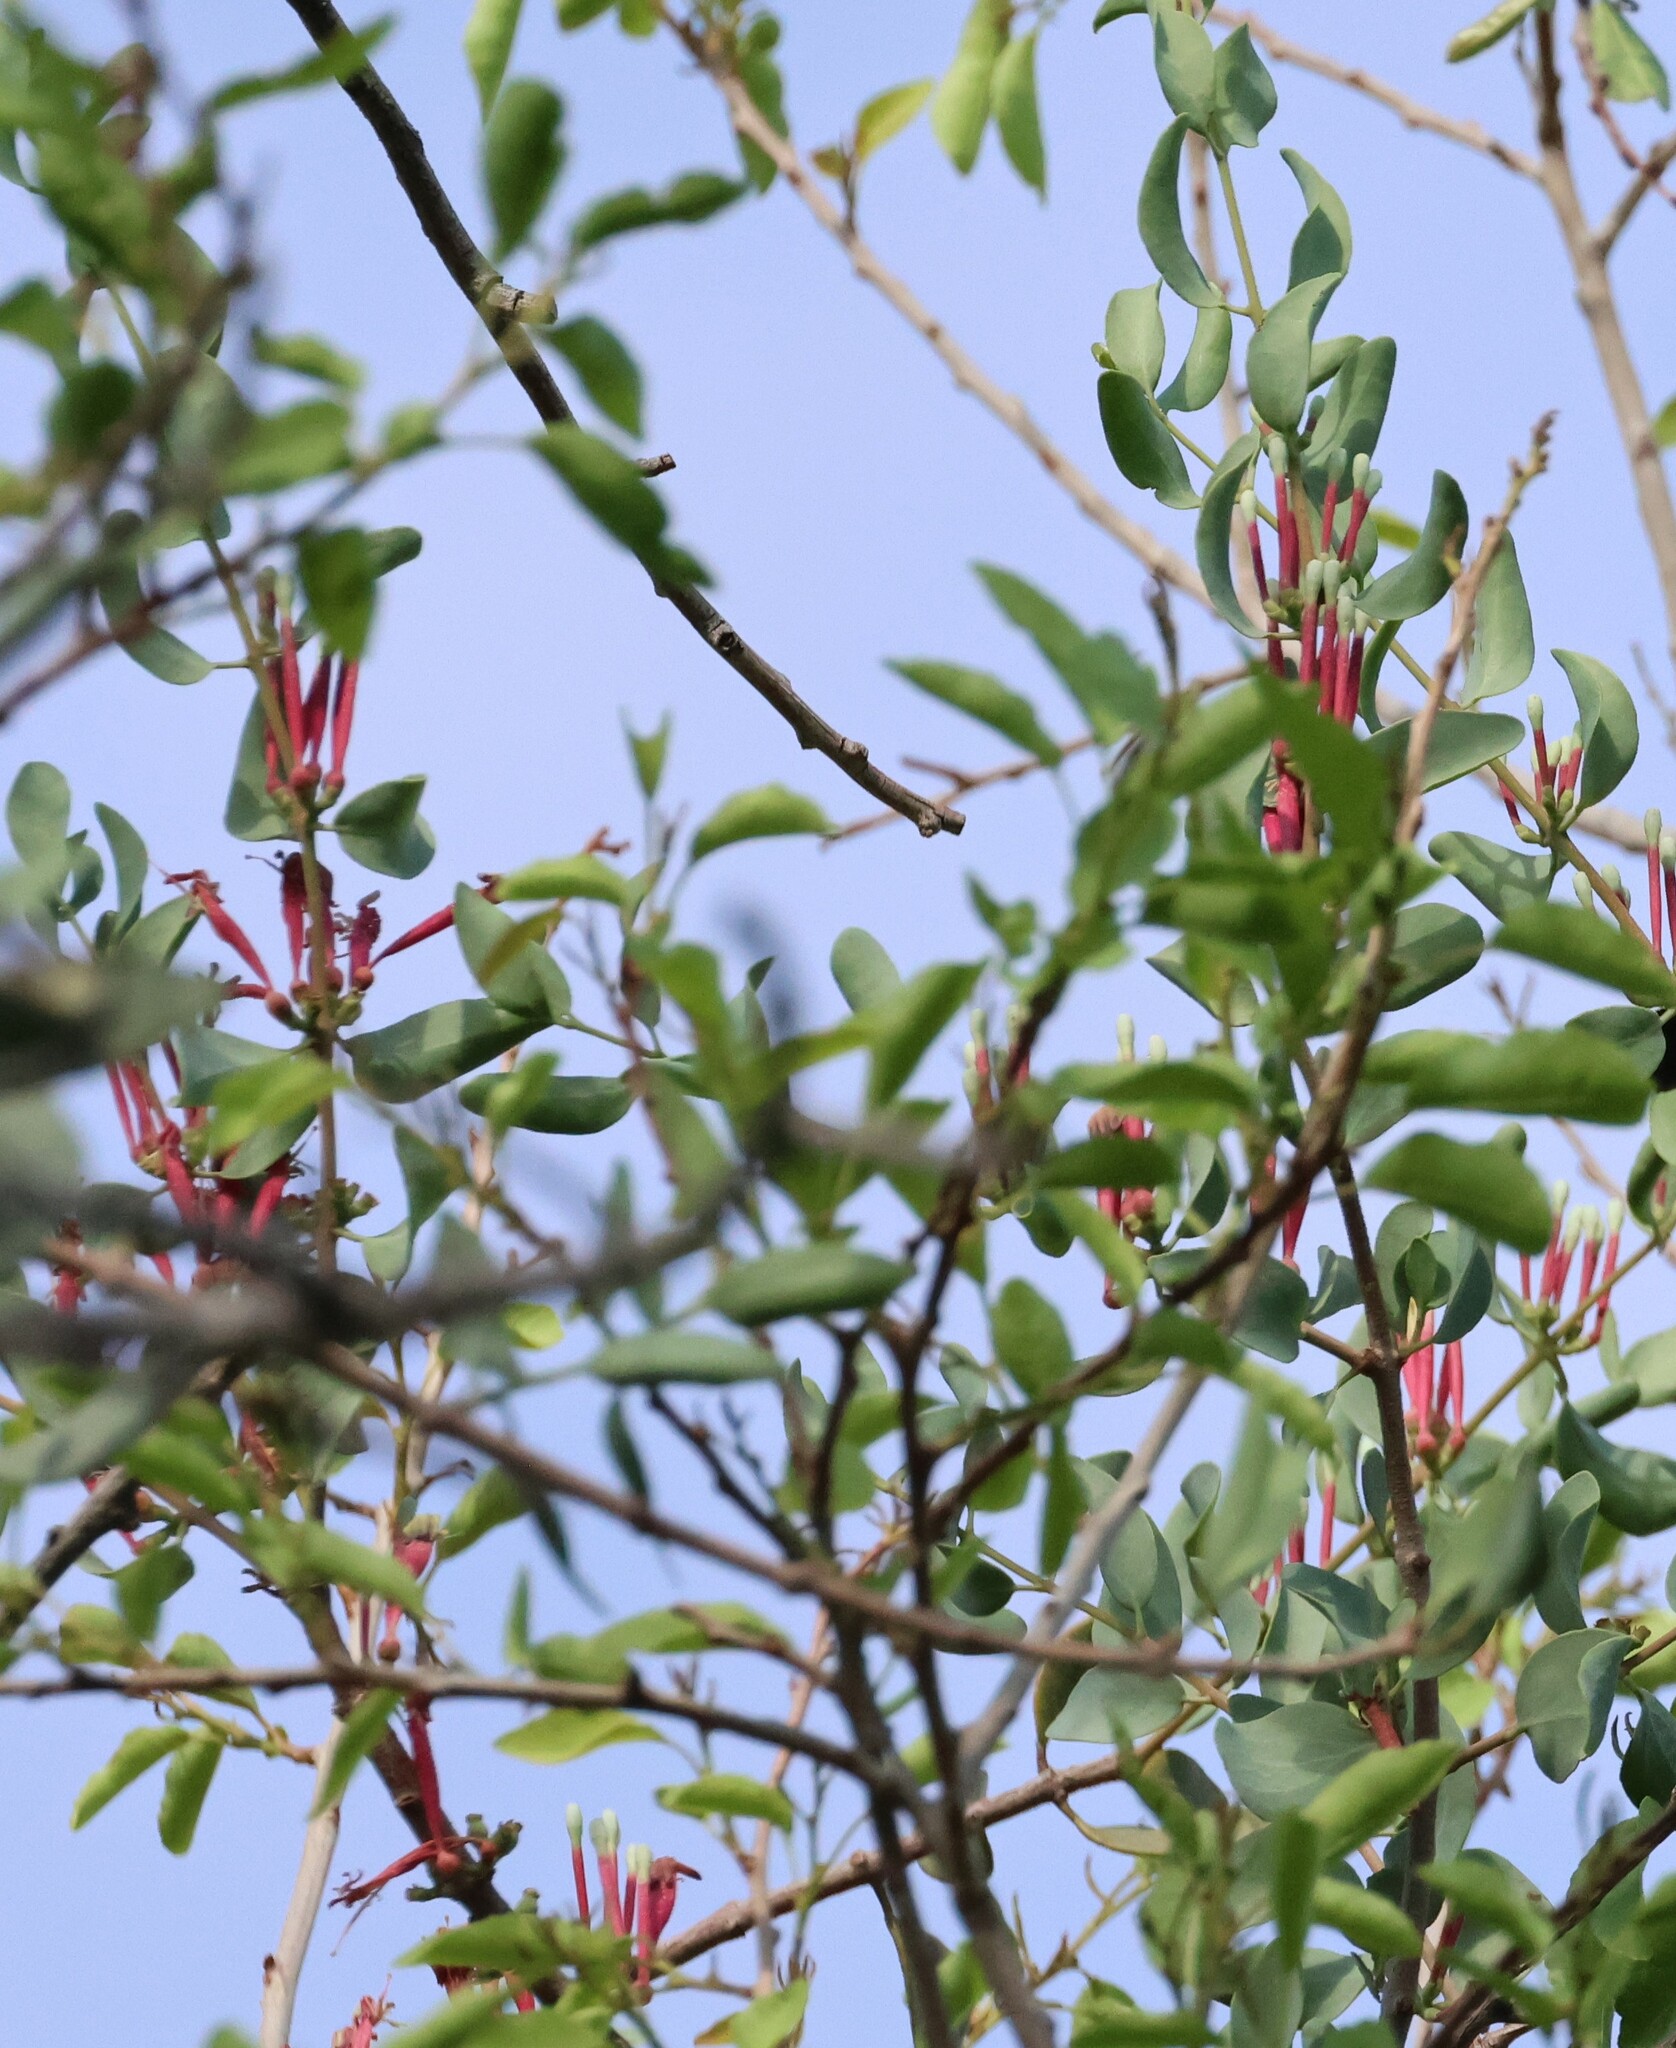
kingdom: Plantae
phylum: Tracheophyta
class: Magnoliopsida
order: Santalales
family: Loranthaceae
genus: Tapinanthus
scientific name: Tapinanthus oleifolius
